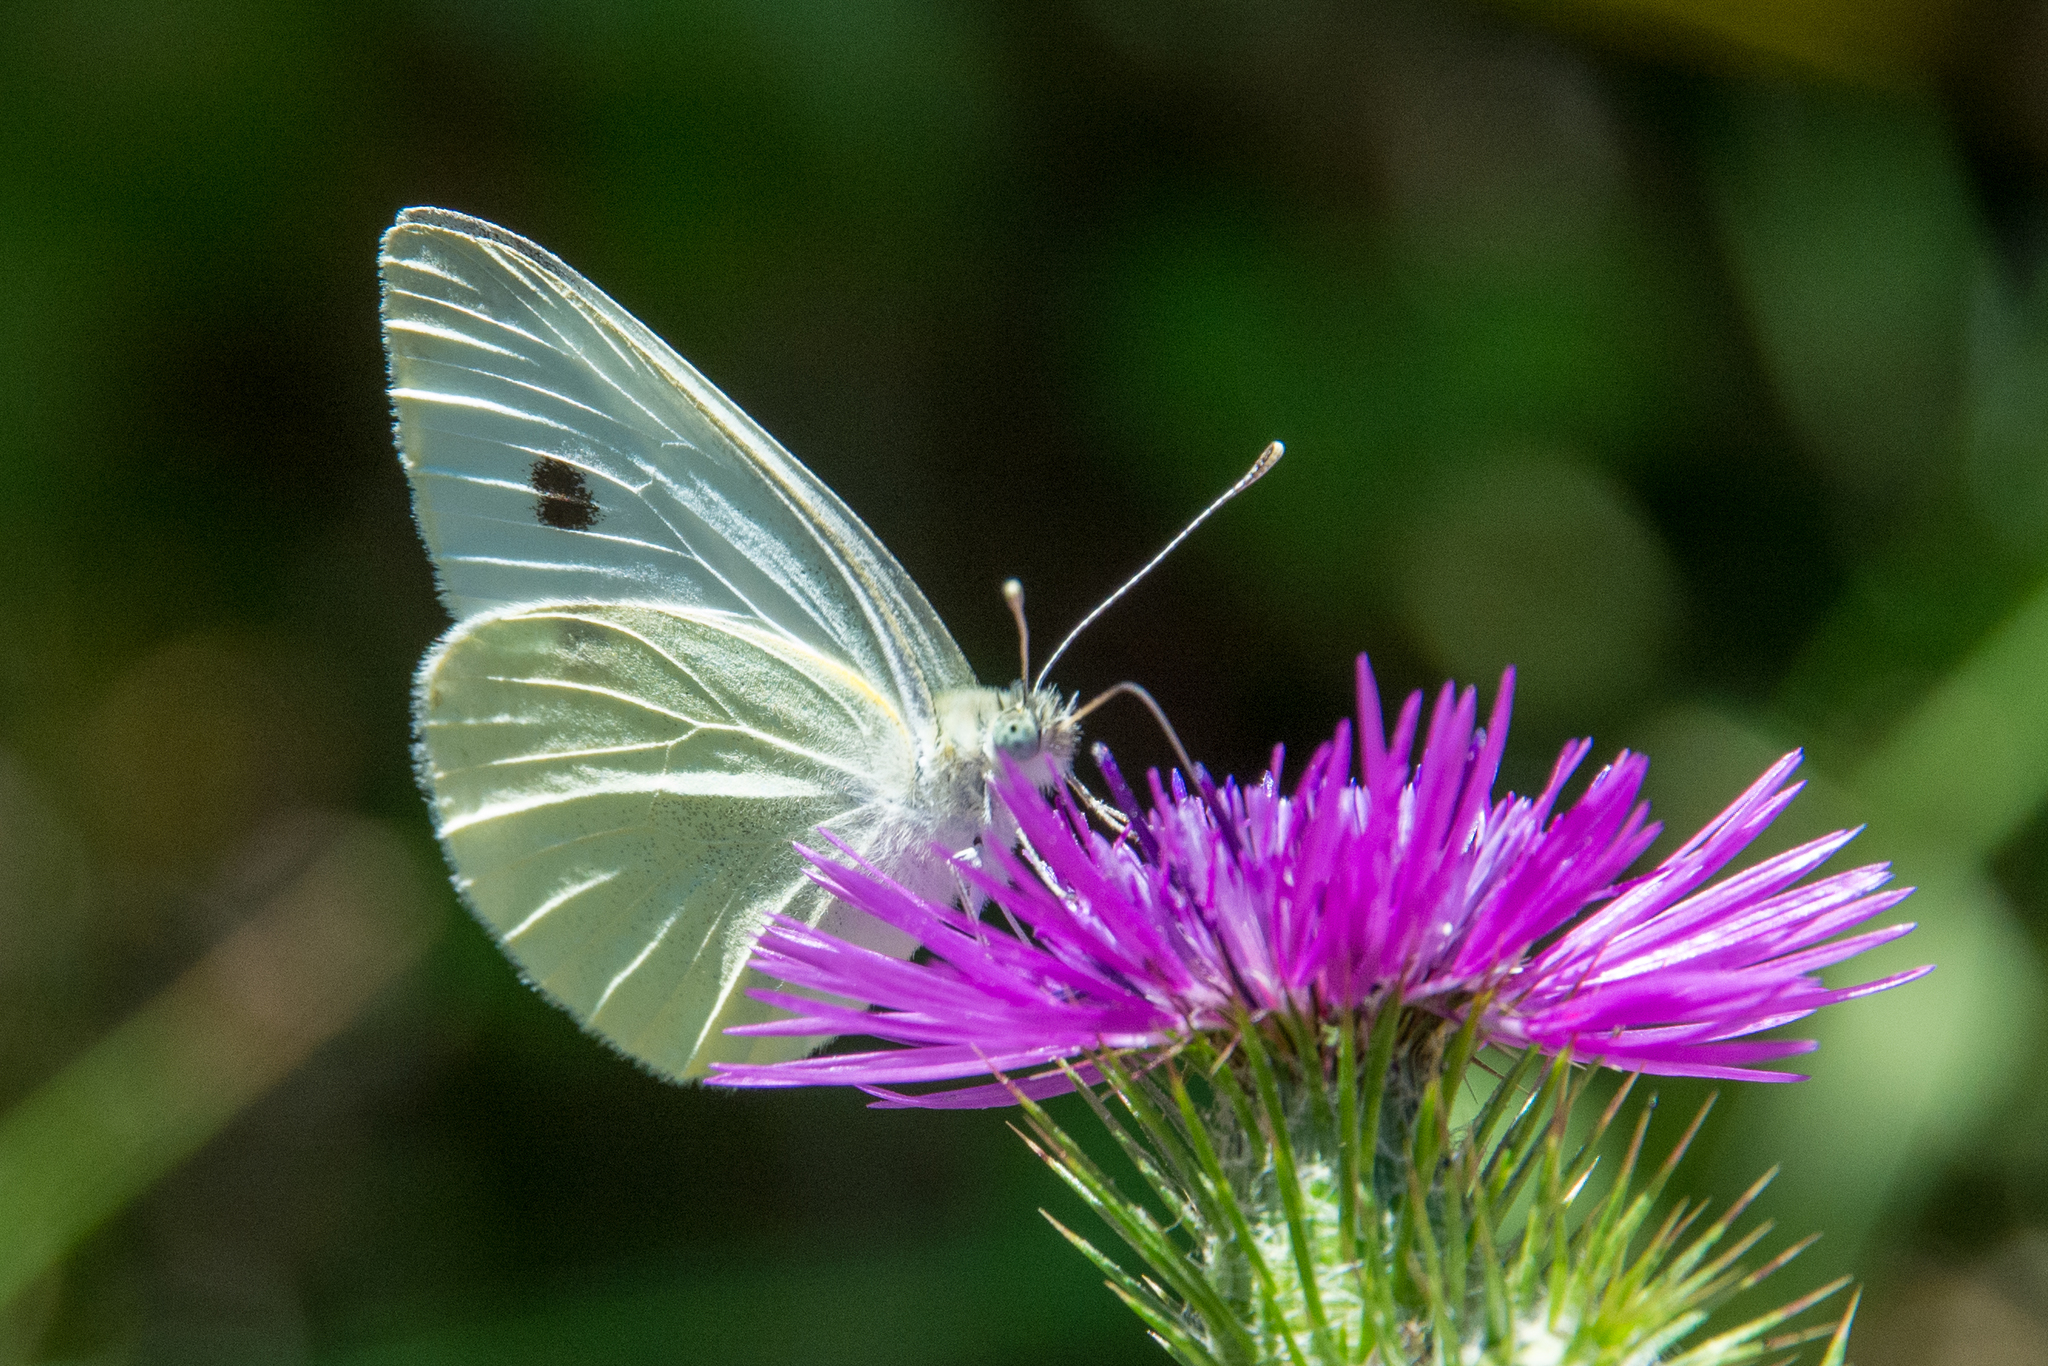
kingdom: Animalia
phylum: Arthropoda
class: Insecta
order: Lepidoptera
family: Pieridae
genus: Pieris
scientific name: Pieris rapae
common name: Small white
